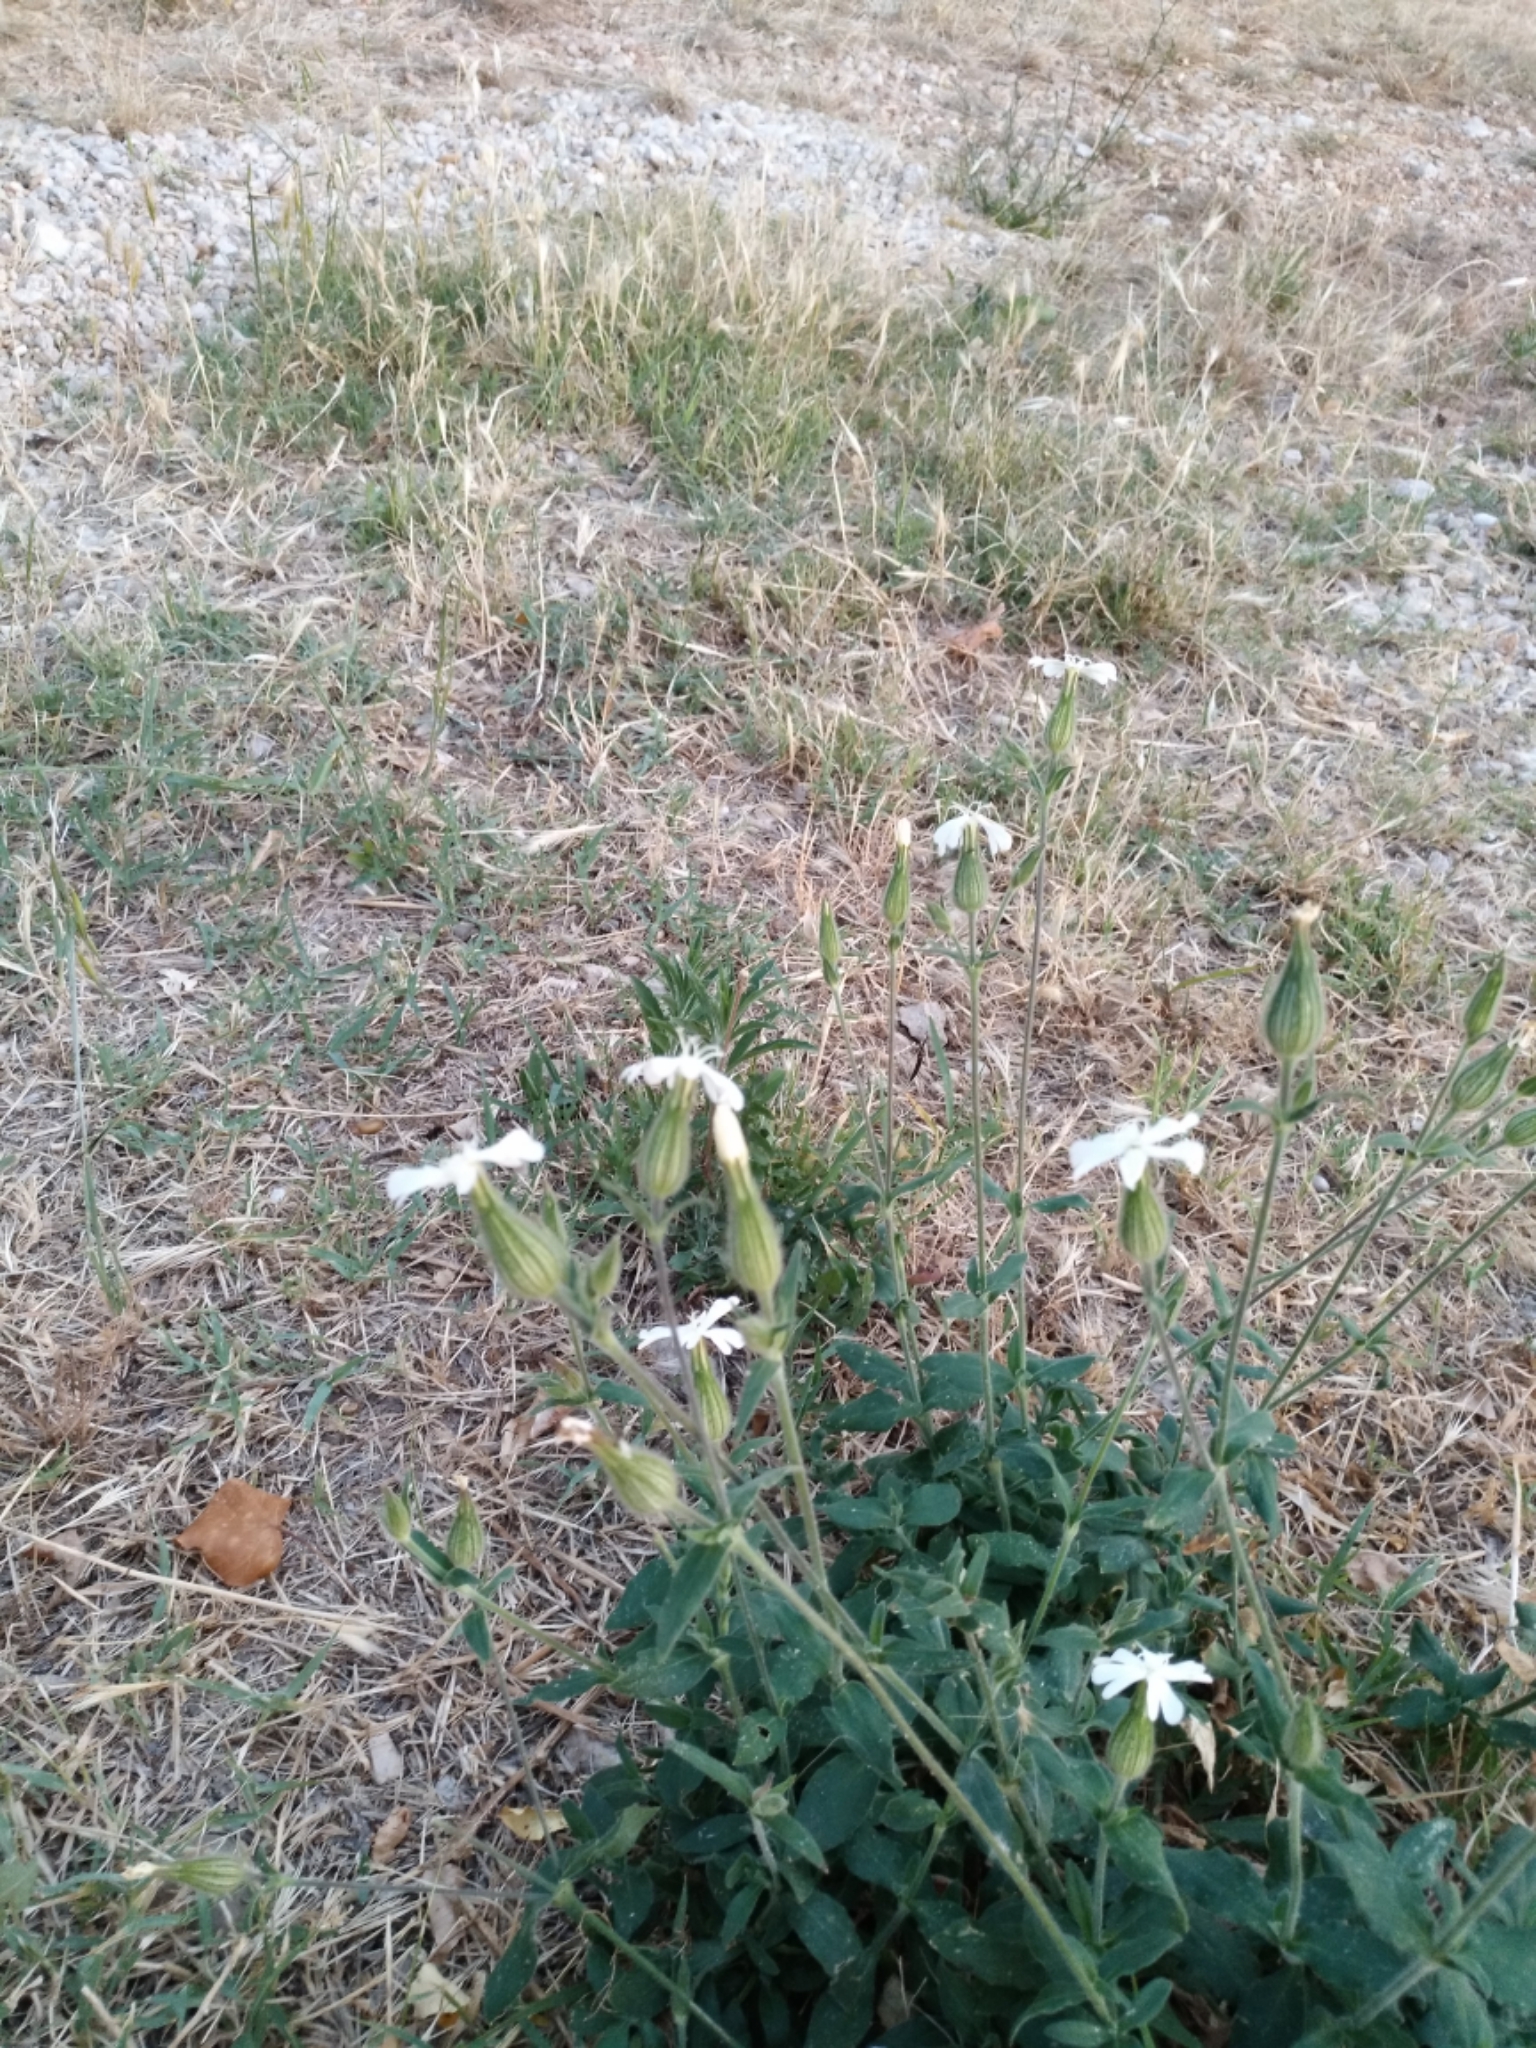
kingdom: Plantae
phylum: Tracheophyta
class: Magnoliopsida
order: Caryophyllales
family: Caryophyllaceae
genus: Silene
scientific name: Silene latifolia
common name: White campion
